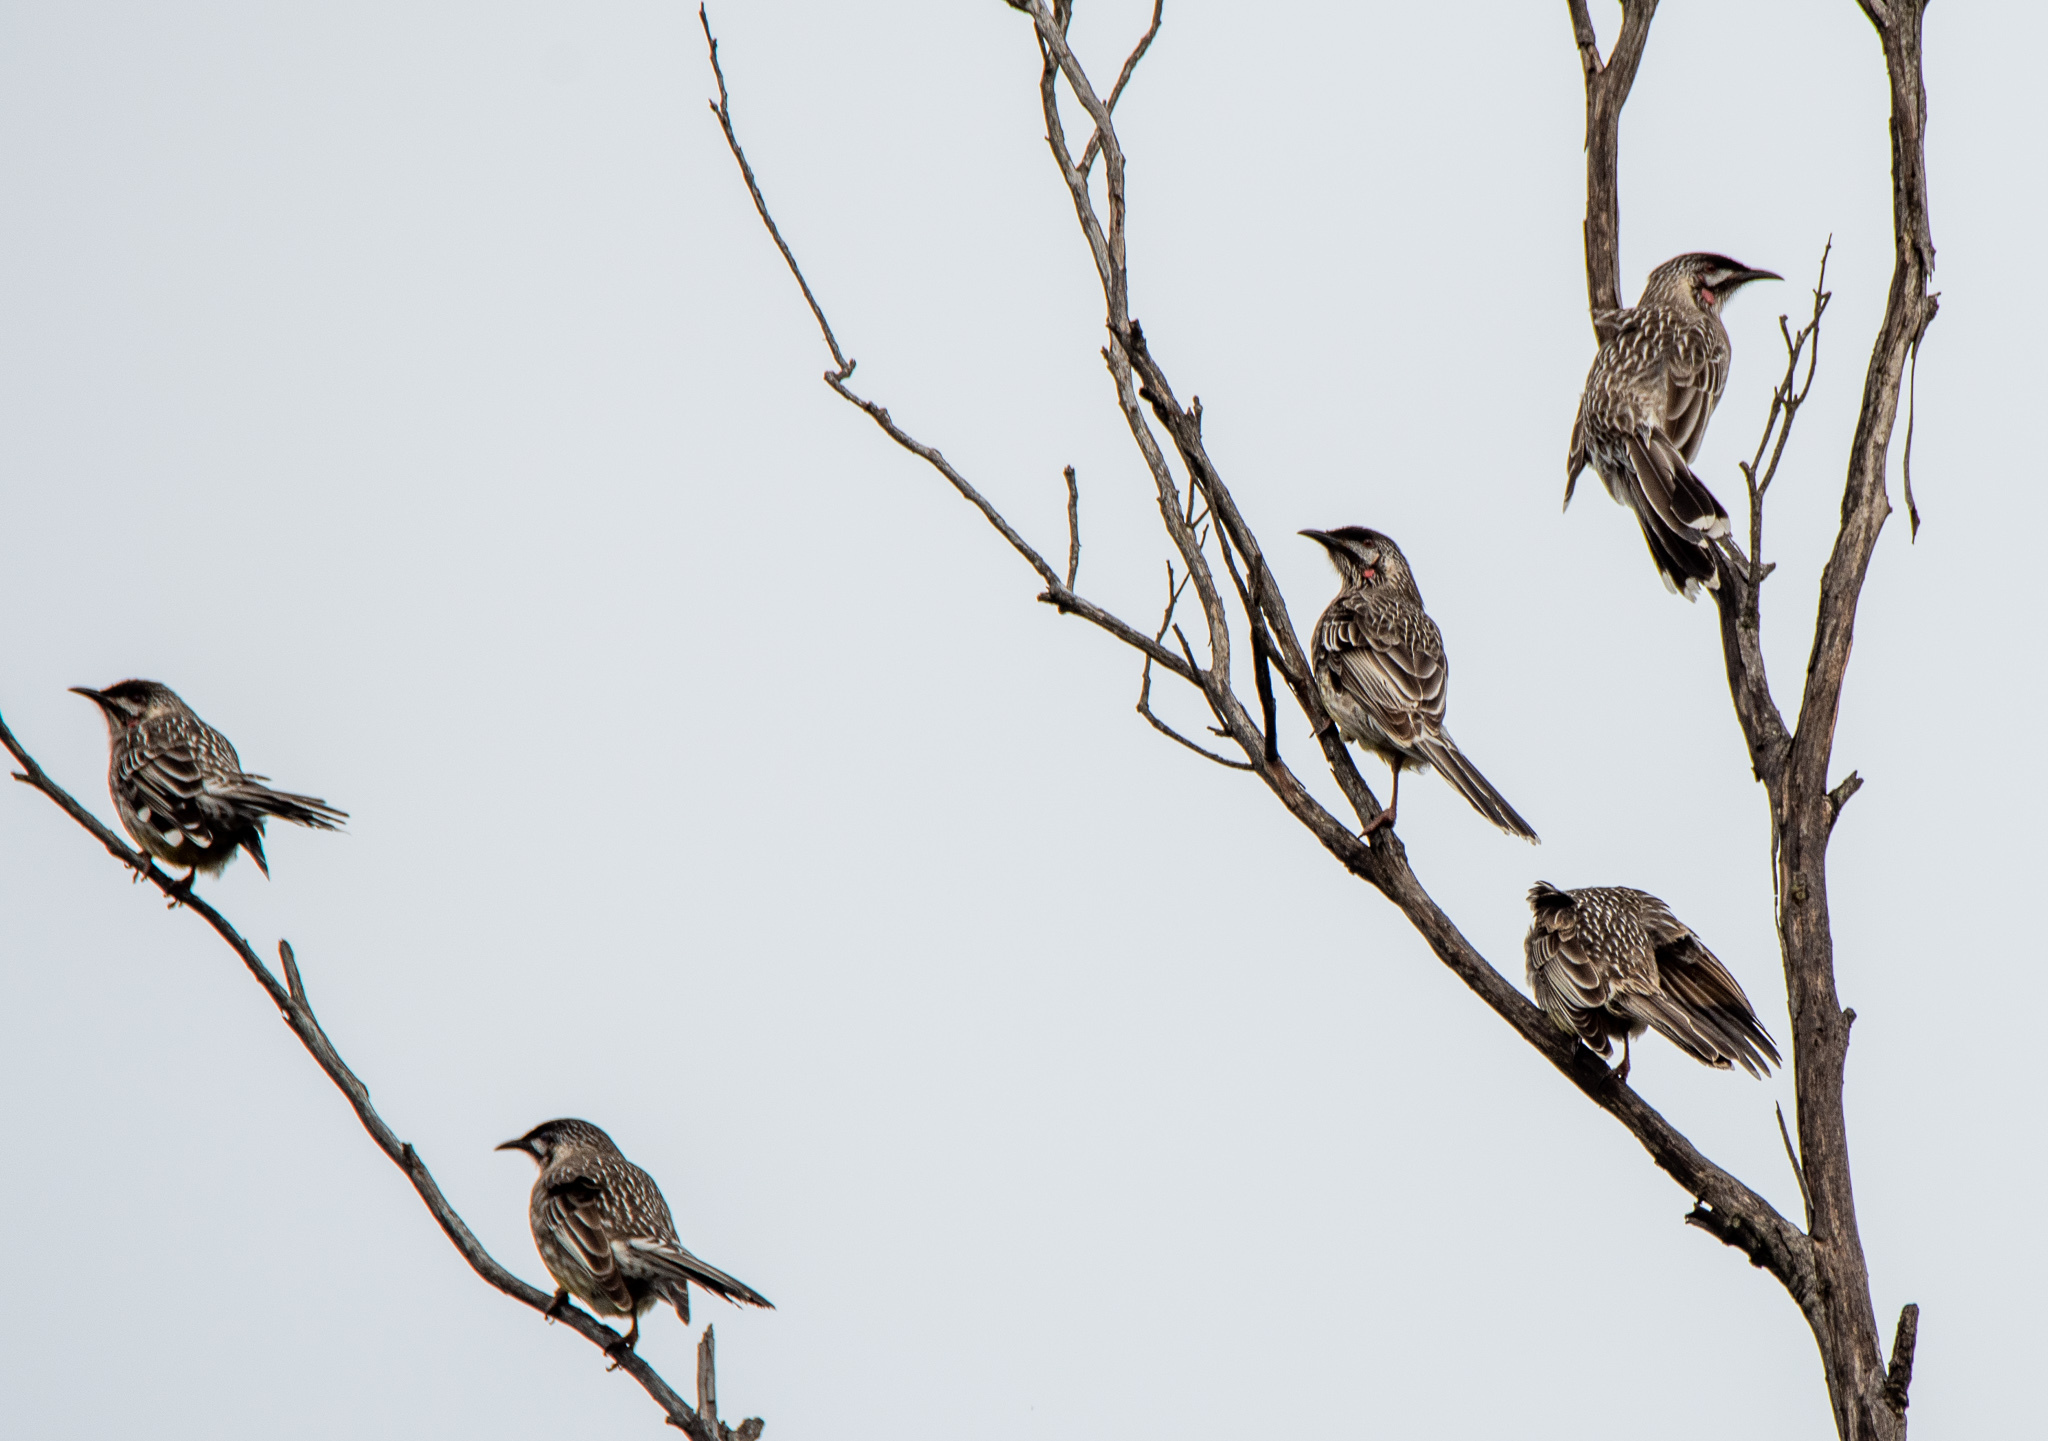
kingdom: Animalia
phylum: Chordata
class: Aves
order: Passeriformes
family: Meliphagidae
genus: Anthochaera
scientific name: Anthochaera carunculata
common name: Red wattlebird
